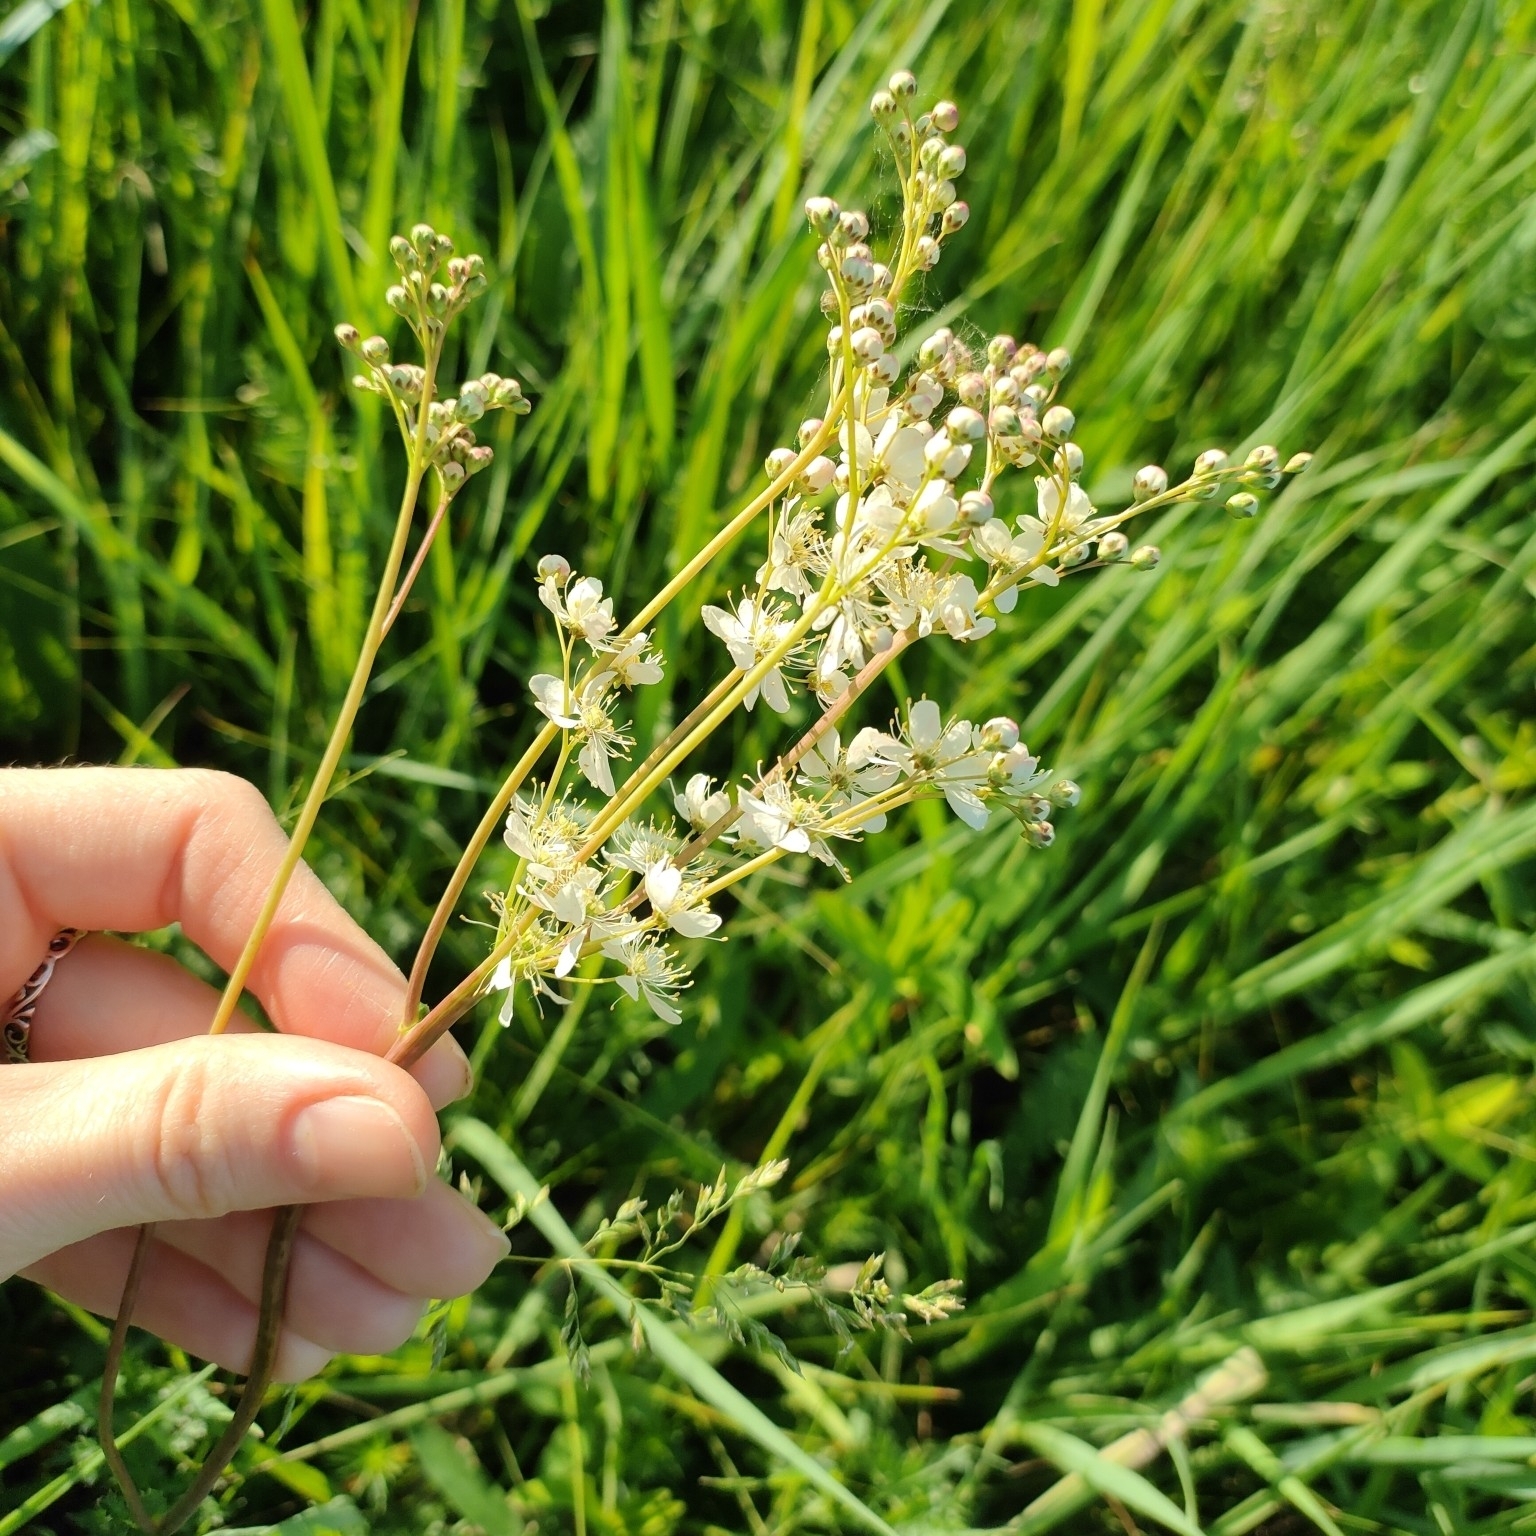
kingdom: Plantae
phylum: Tracheophyta
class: Magnoliopsida
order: Rosales
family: Rosaceae
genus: Filipendula
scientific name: Filipendula vulgaris
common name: Dropwort
